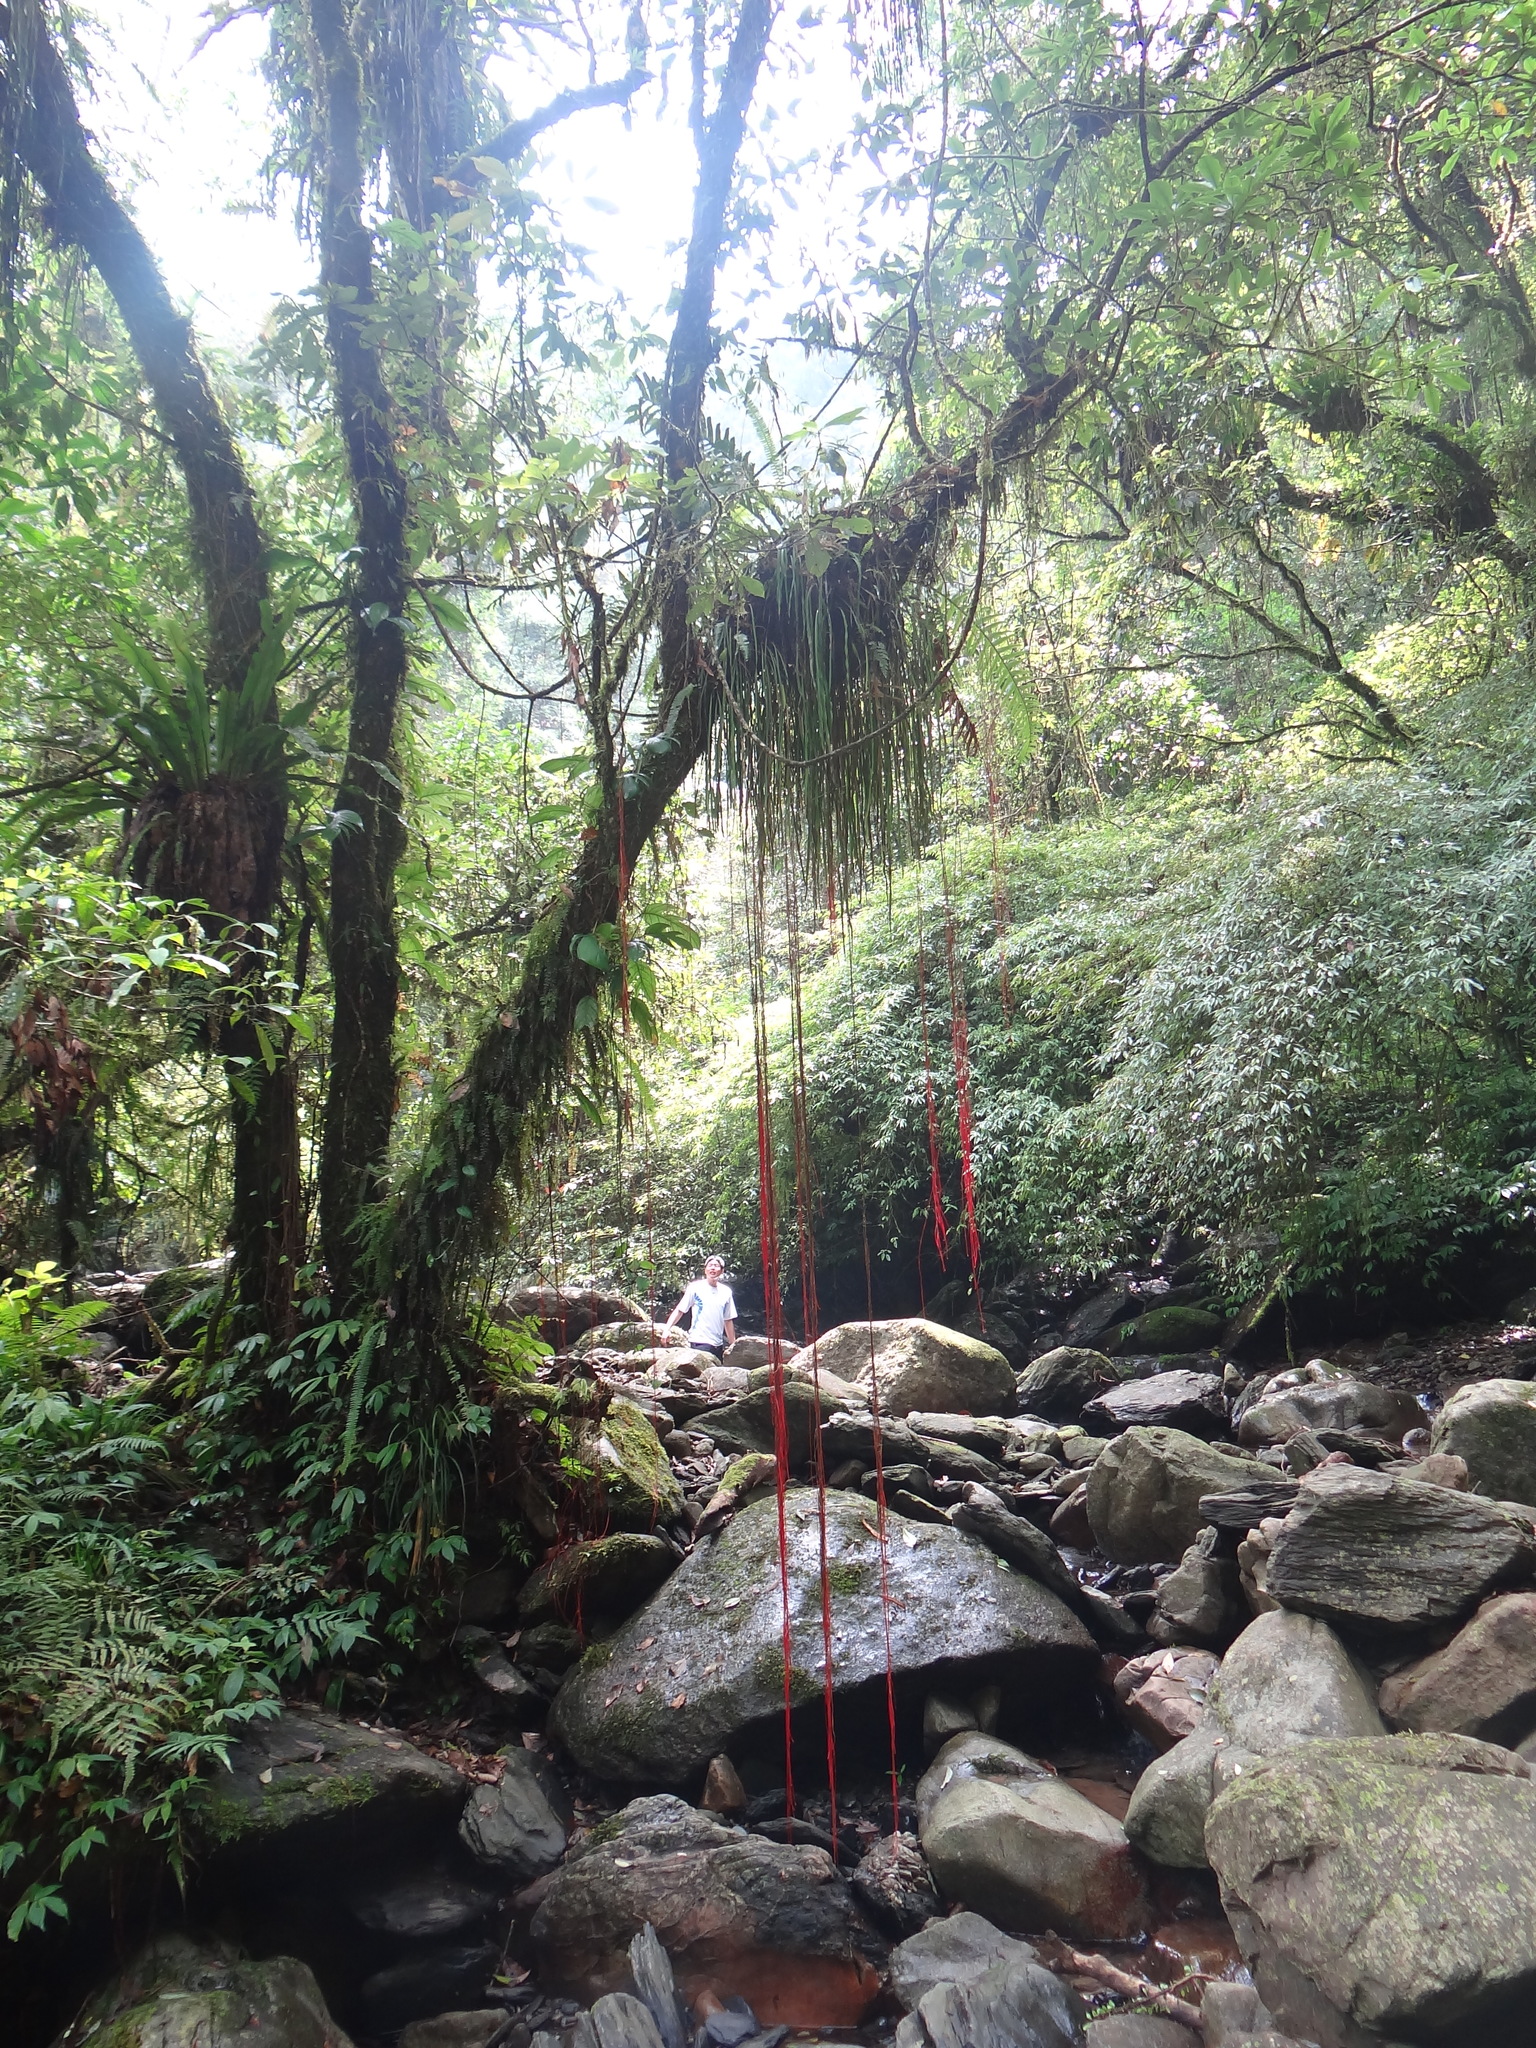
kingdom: Plantae
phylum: Tracheophyta
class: Polypodiopsida
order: Polypodiales
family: Pteridaceae
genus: Haplopteris
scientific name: Haplopteris elongata
